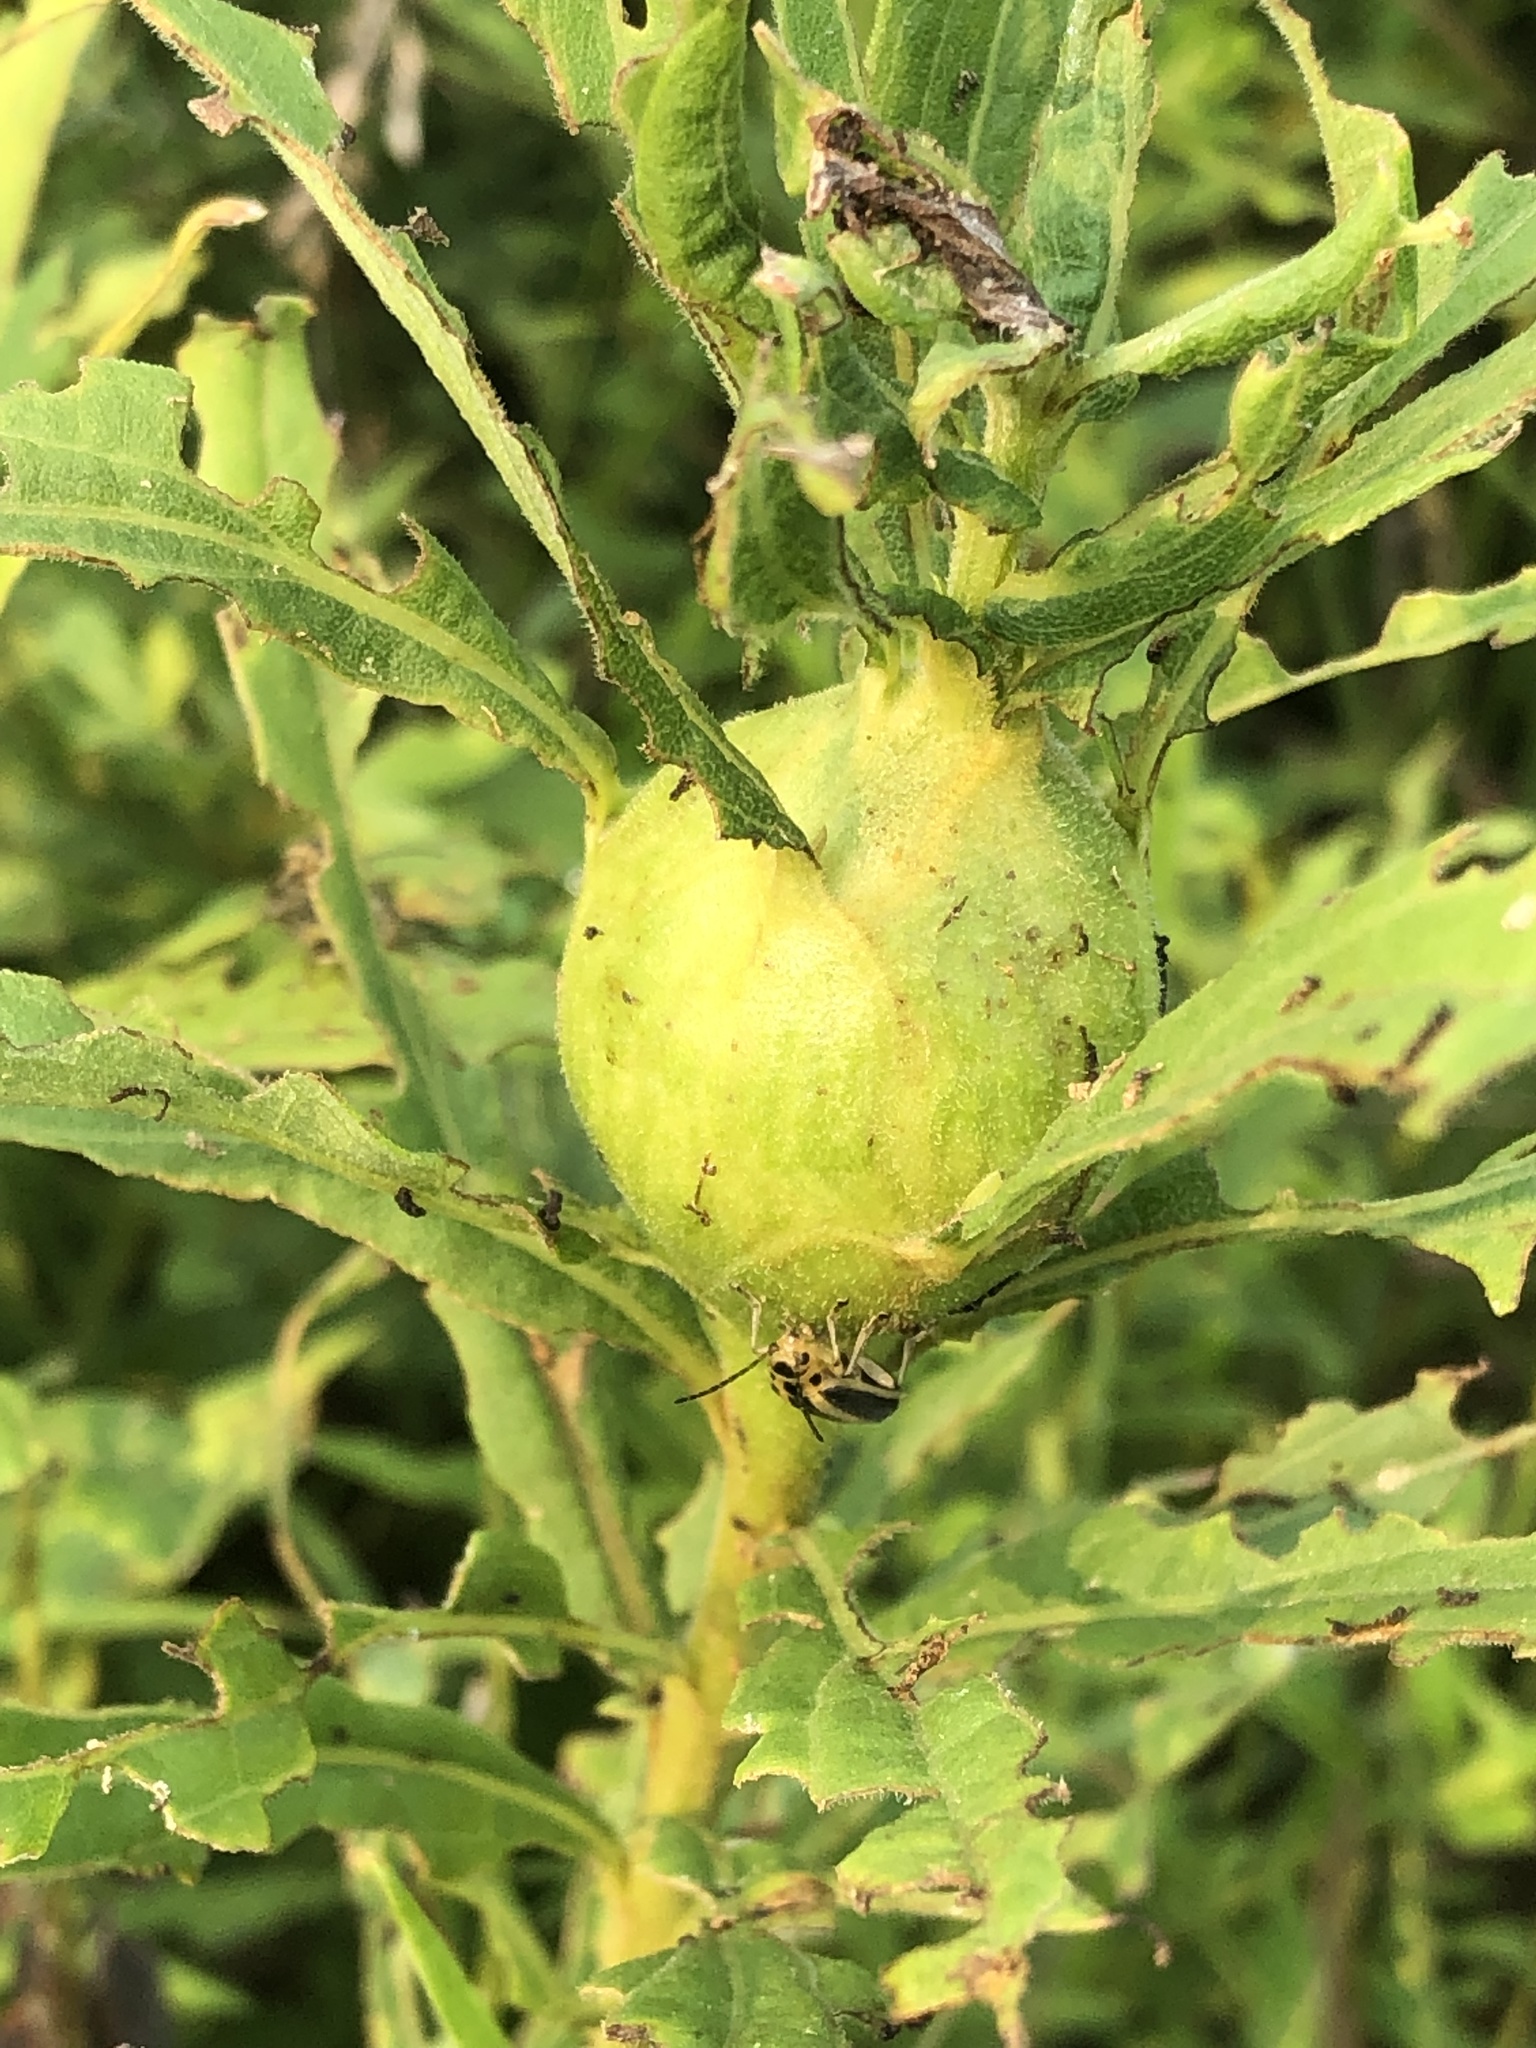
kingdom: Animalia
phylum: Arthropoda
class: Insecta
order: Diptera
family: Tephritidae
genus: Eurosta
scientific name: Eurosta solidaginis
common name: Goldenrod gall fly
